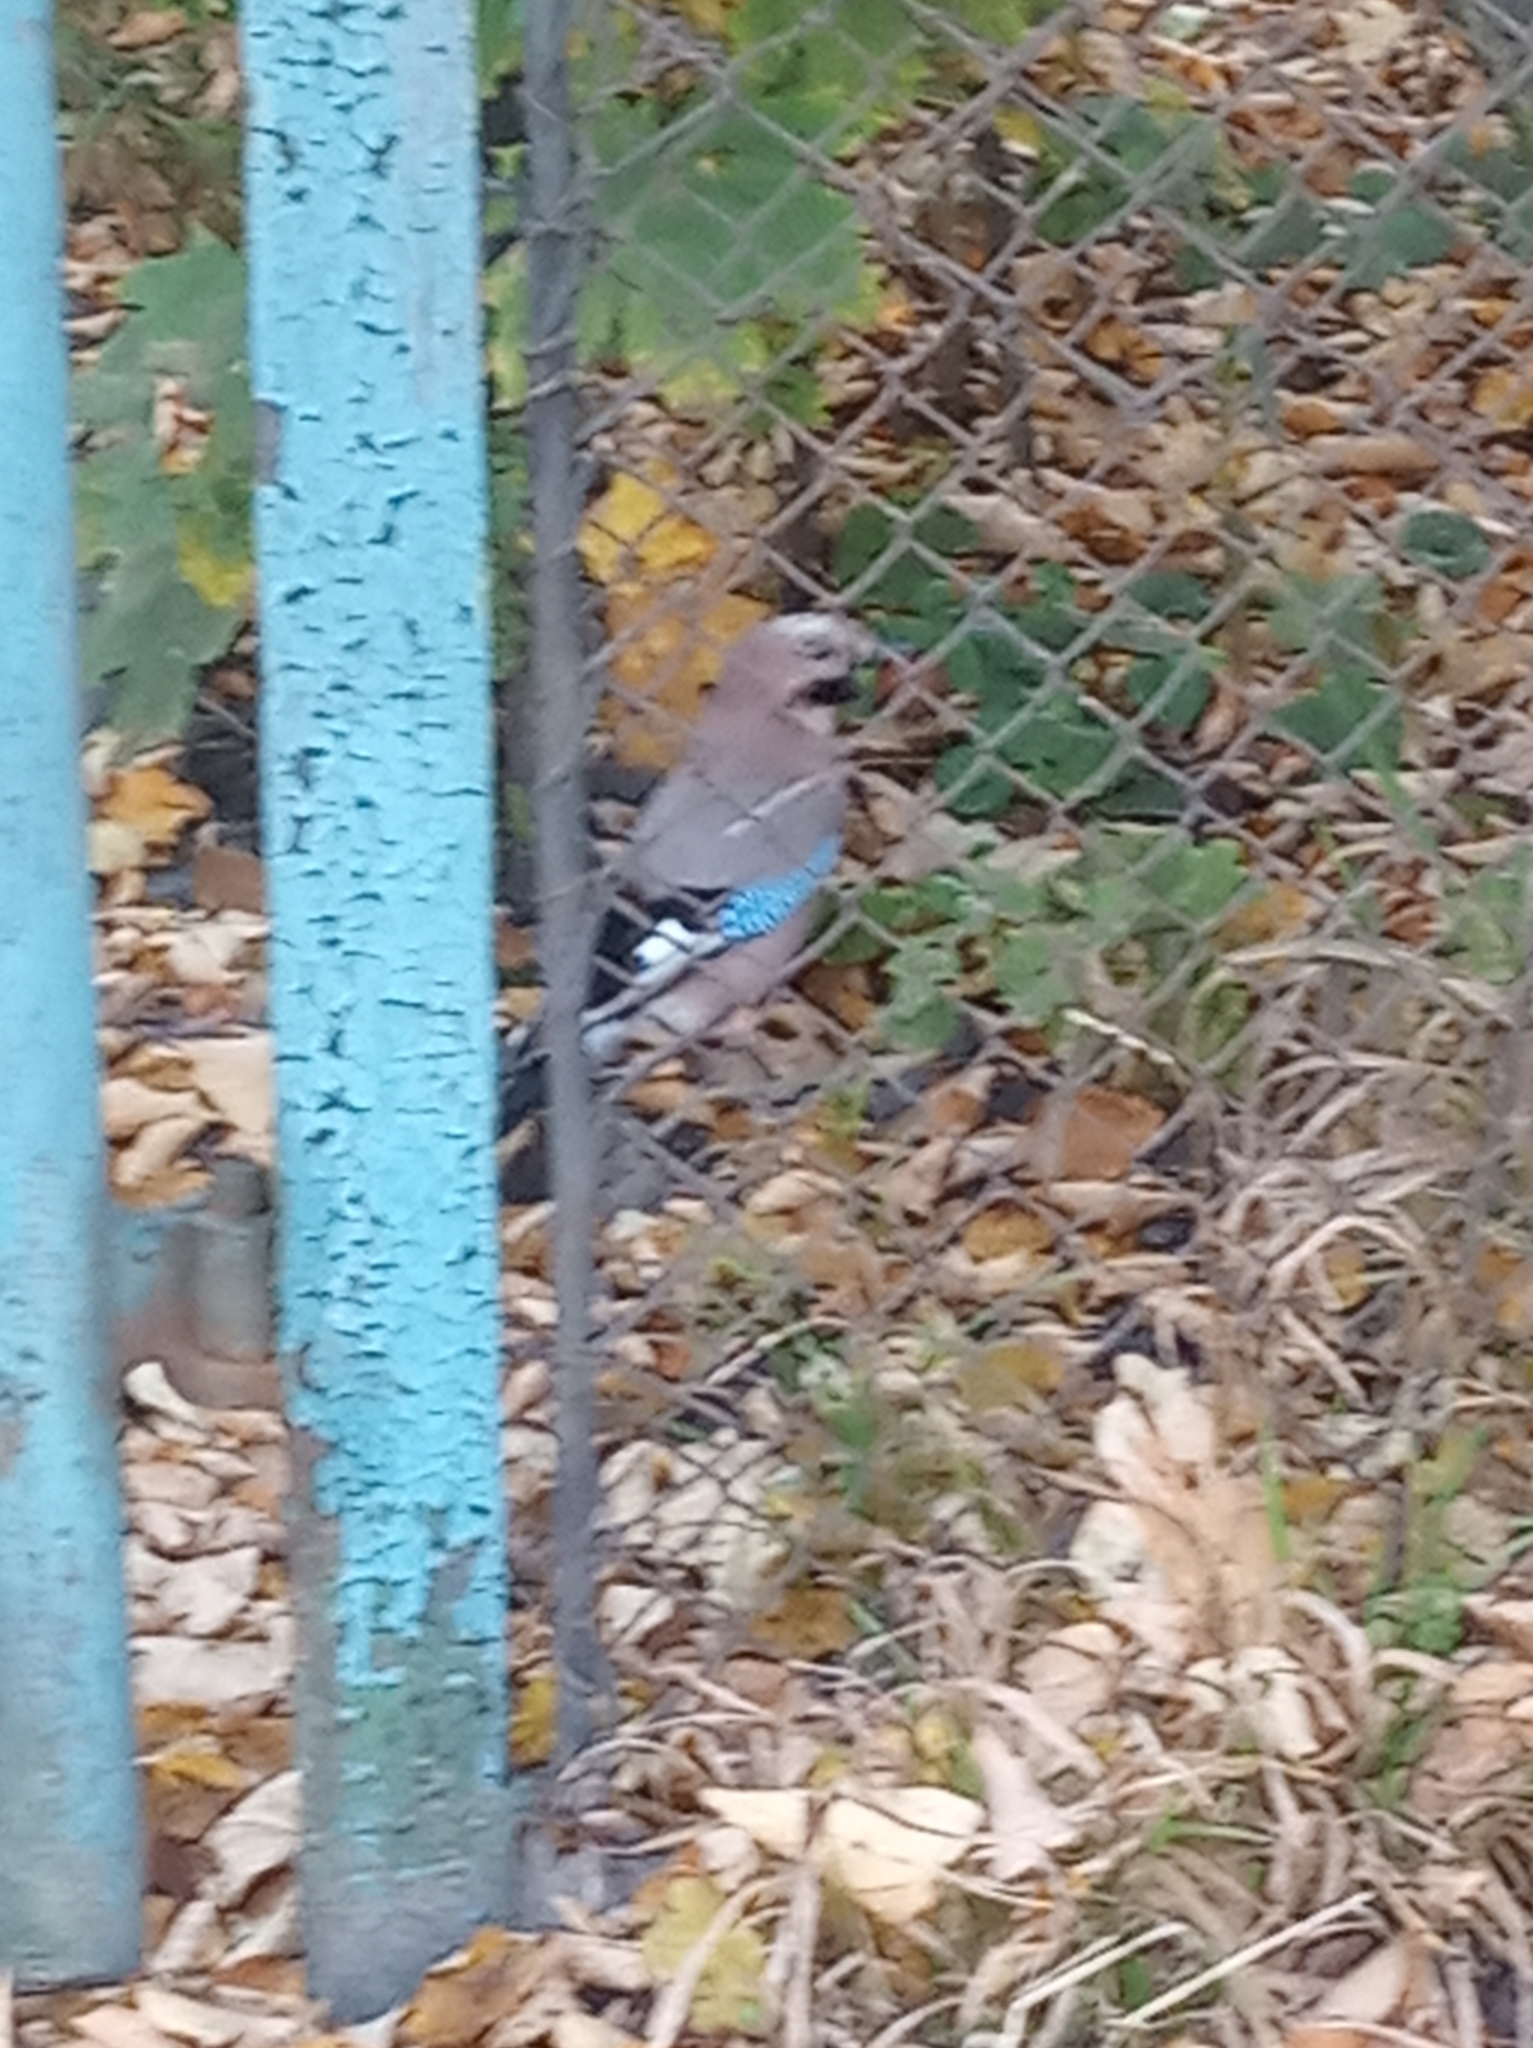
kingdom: Animalia
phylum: Chordata
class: Aves
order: Passeriformes
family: Corvidae
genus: Garrulus
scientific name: Garrulus glandarius
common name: Eurasian jay
